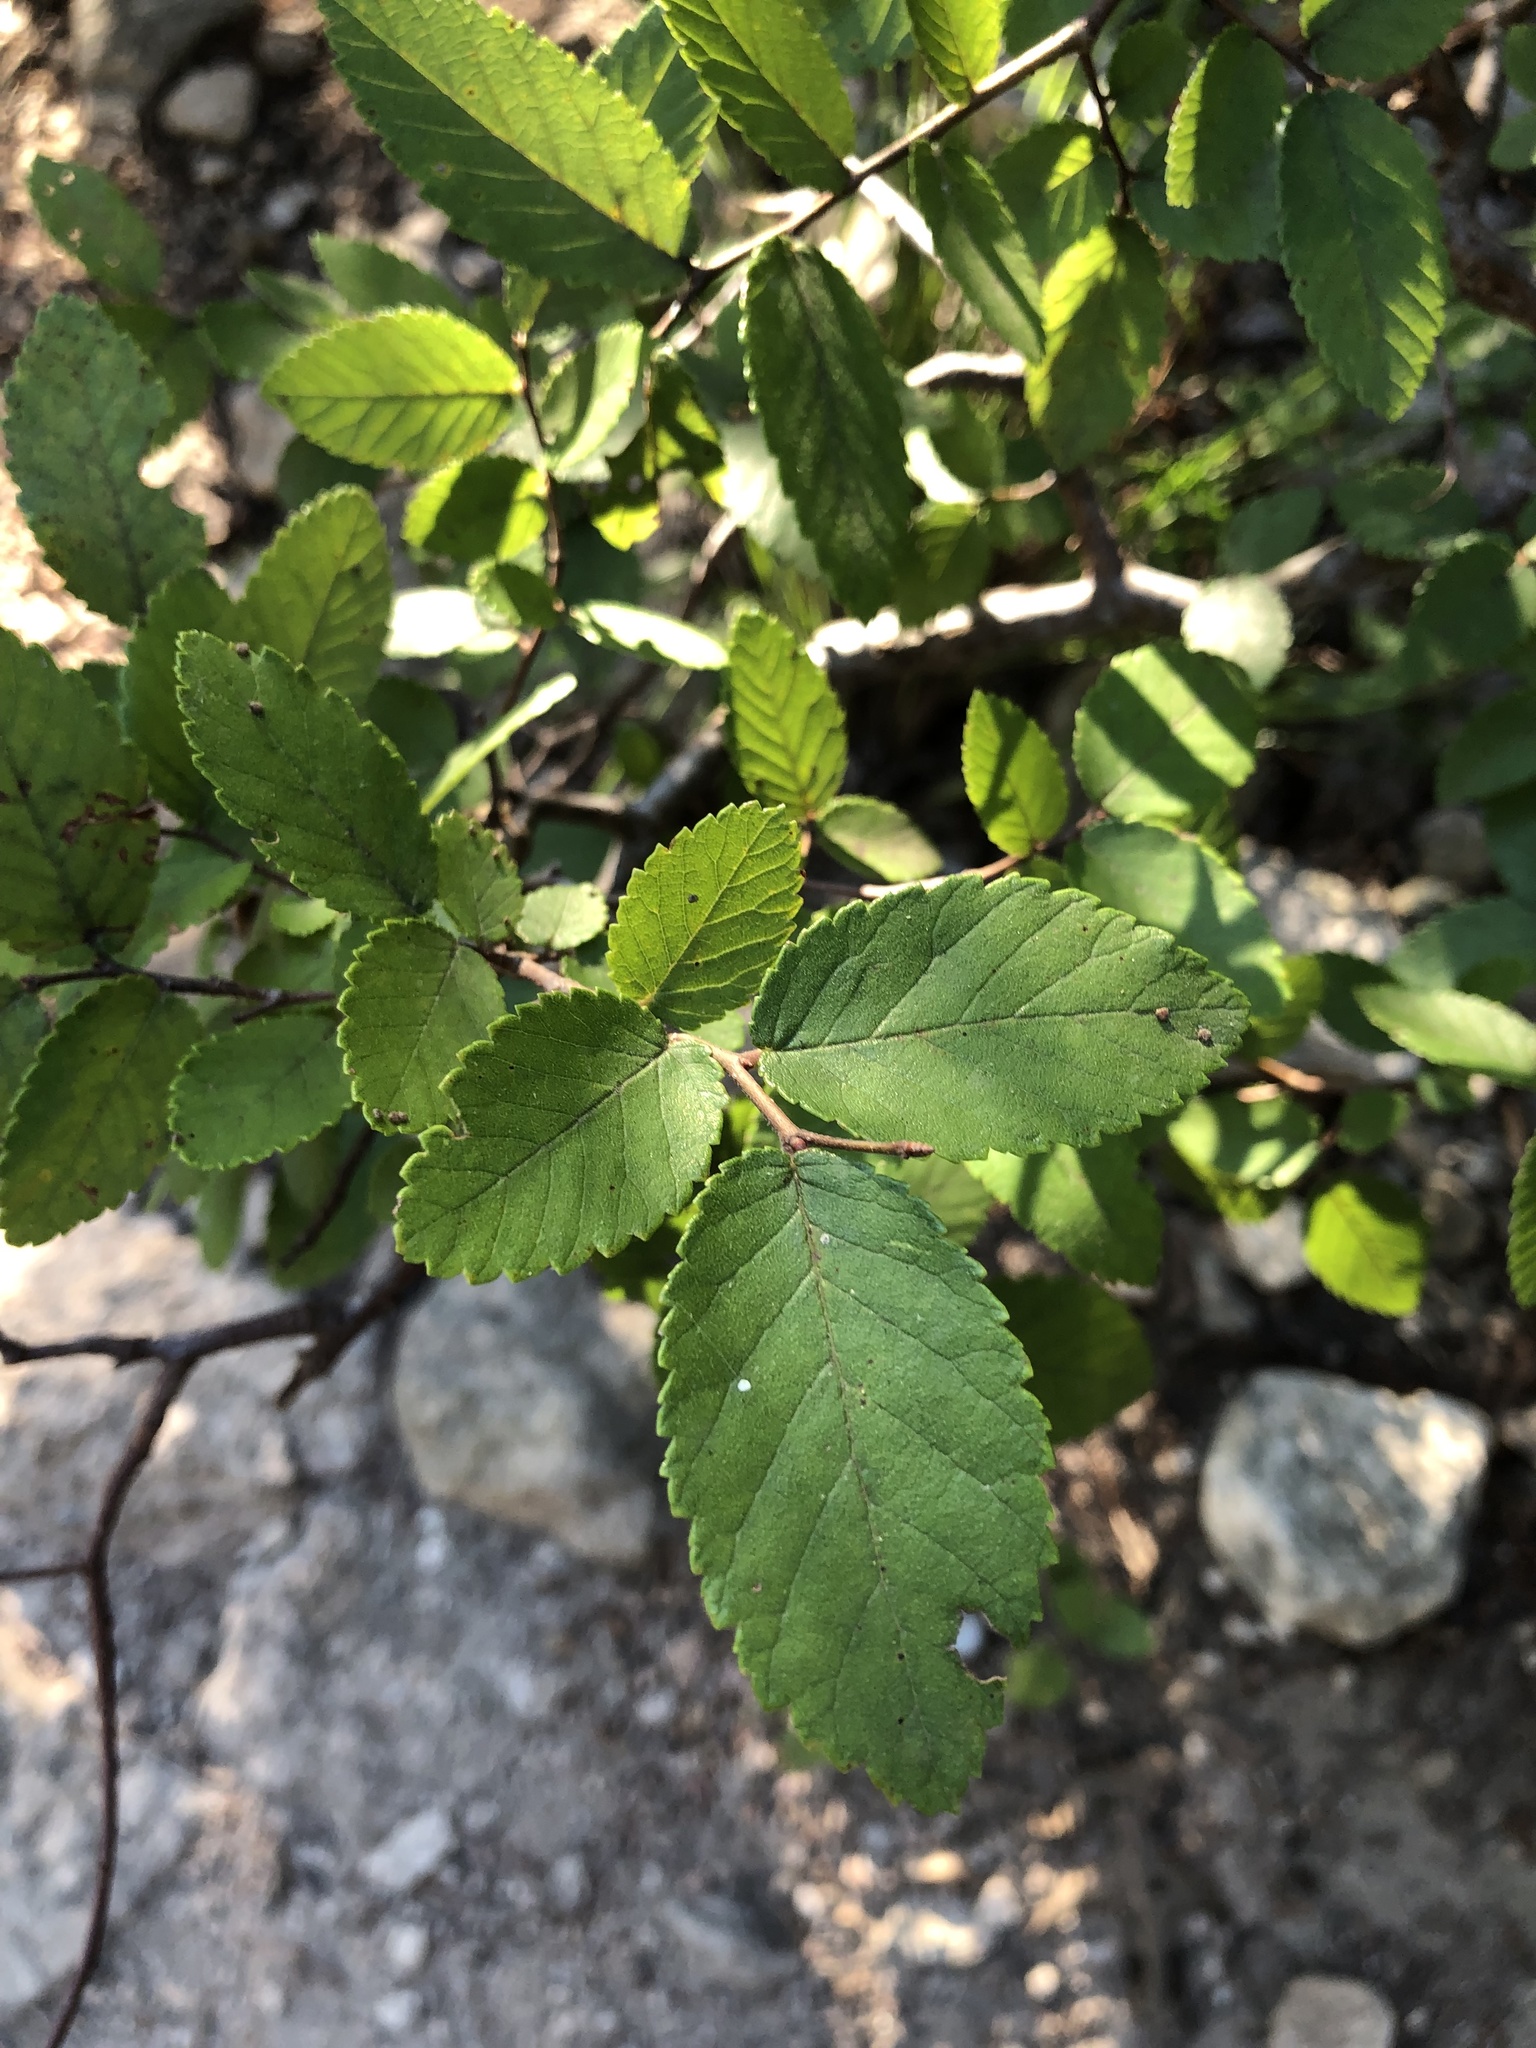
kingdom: Plantae
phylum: Tracheophyta
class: Magnoliopsida
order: Rosales
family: Ulmaceae
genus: Ulmus
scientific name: Ulmus crassifolia
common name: Basket elm
